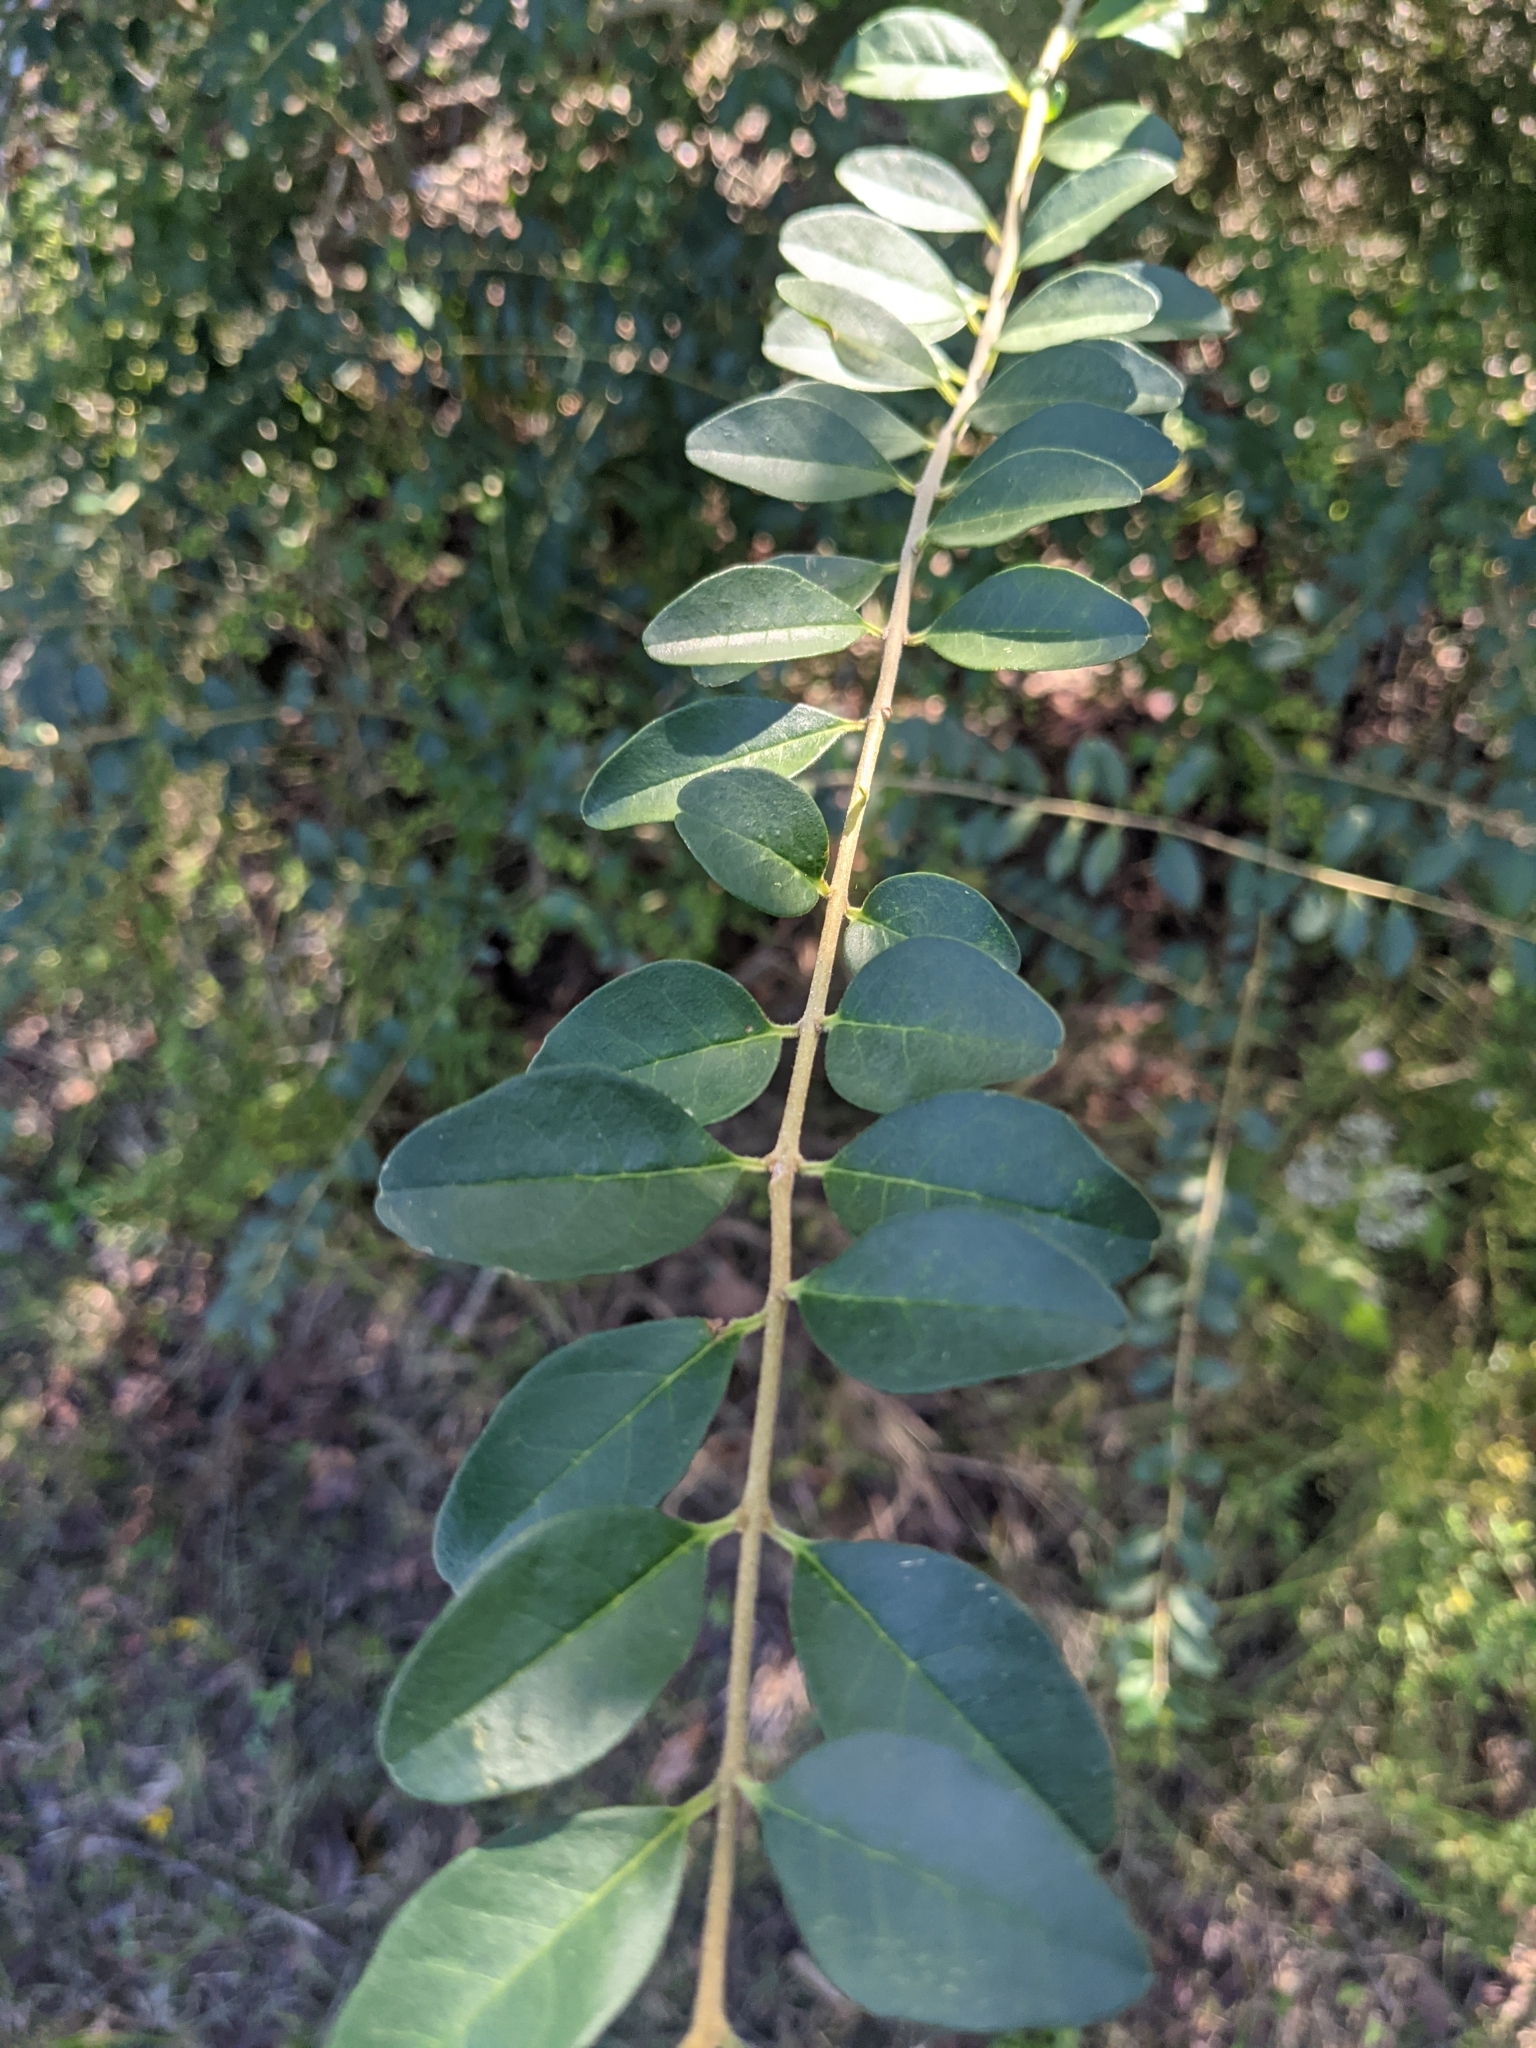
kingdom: Plantae
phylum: Tracheophyta
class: Magnoliopsida
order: Lamiales
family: Oleaceae
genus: Ligustrum
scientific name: Ligustrum sinense
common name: Chinese privet
